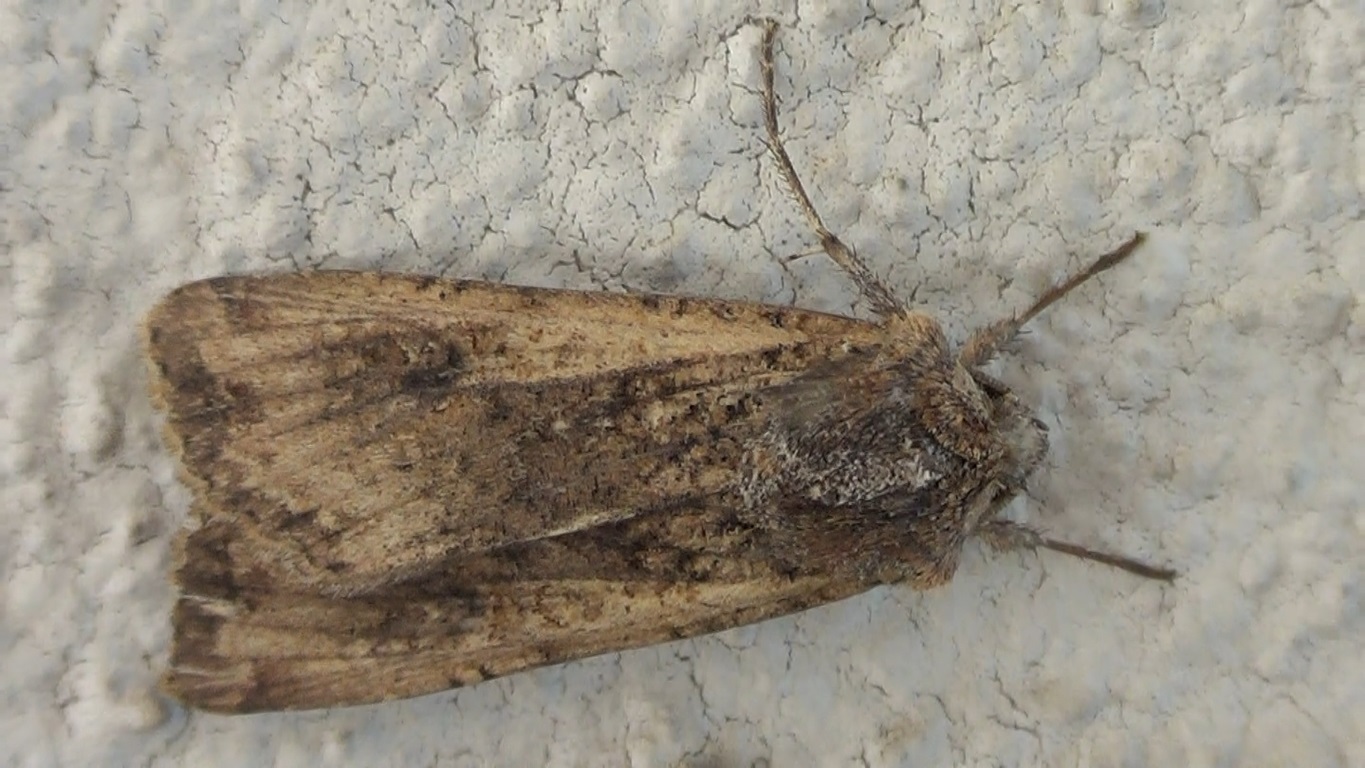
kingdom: Animalia
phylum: Arthropoda
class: Insecta
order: Lepidoptera
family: Noctuidae
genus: Peridroma
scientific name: Peridroma saucia
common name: Pearly underwing
